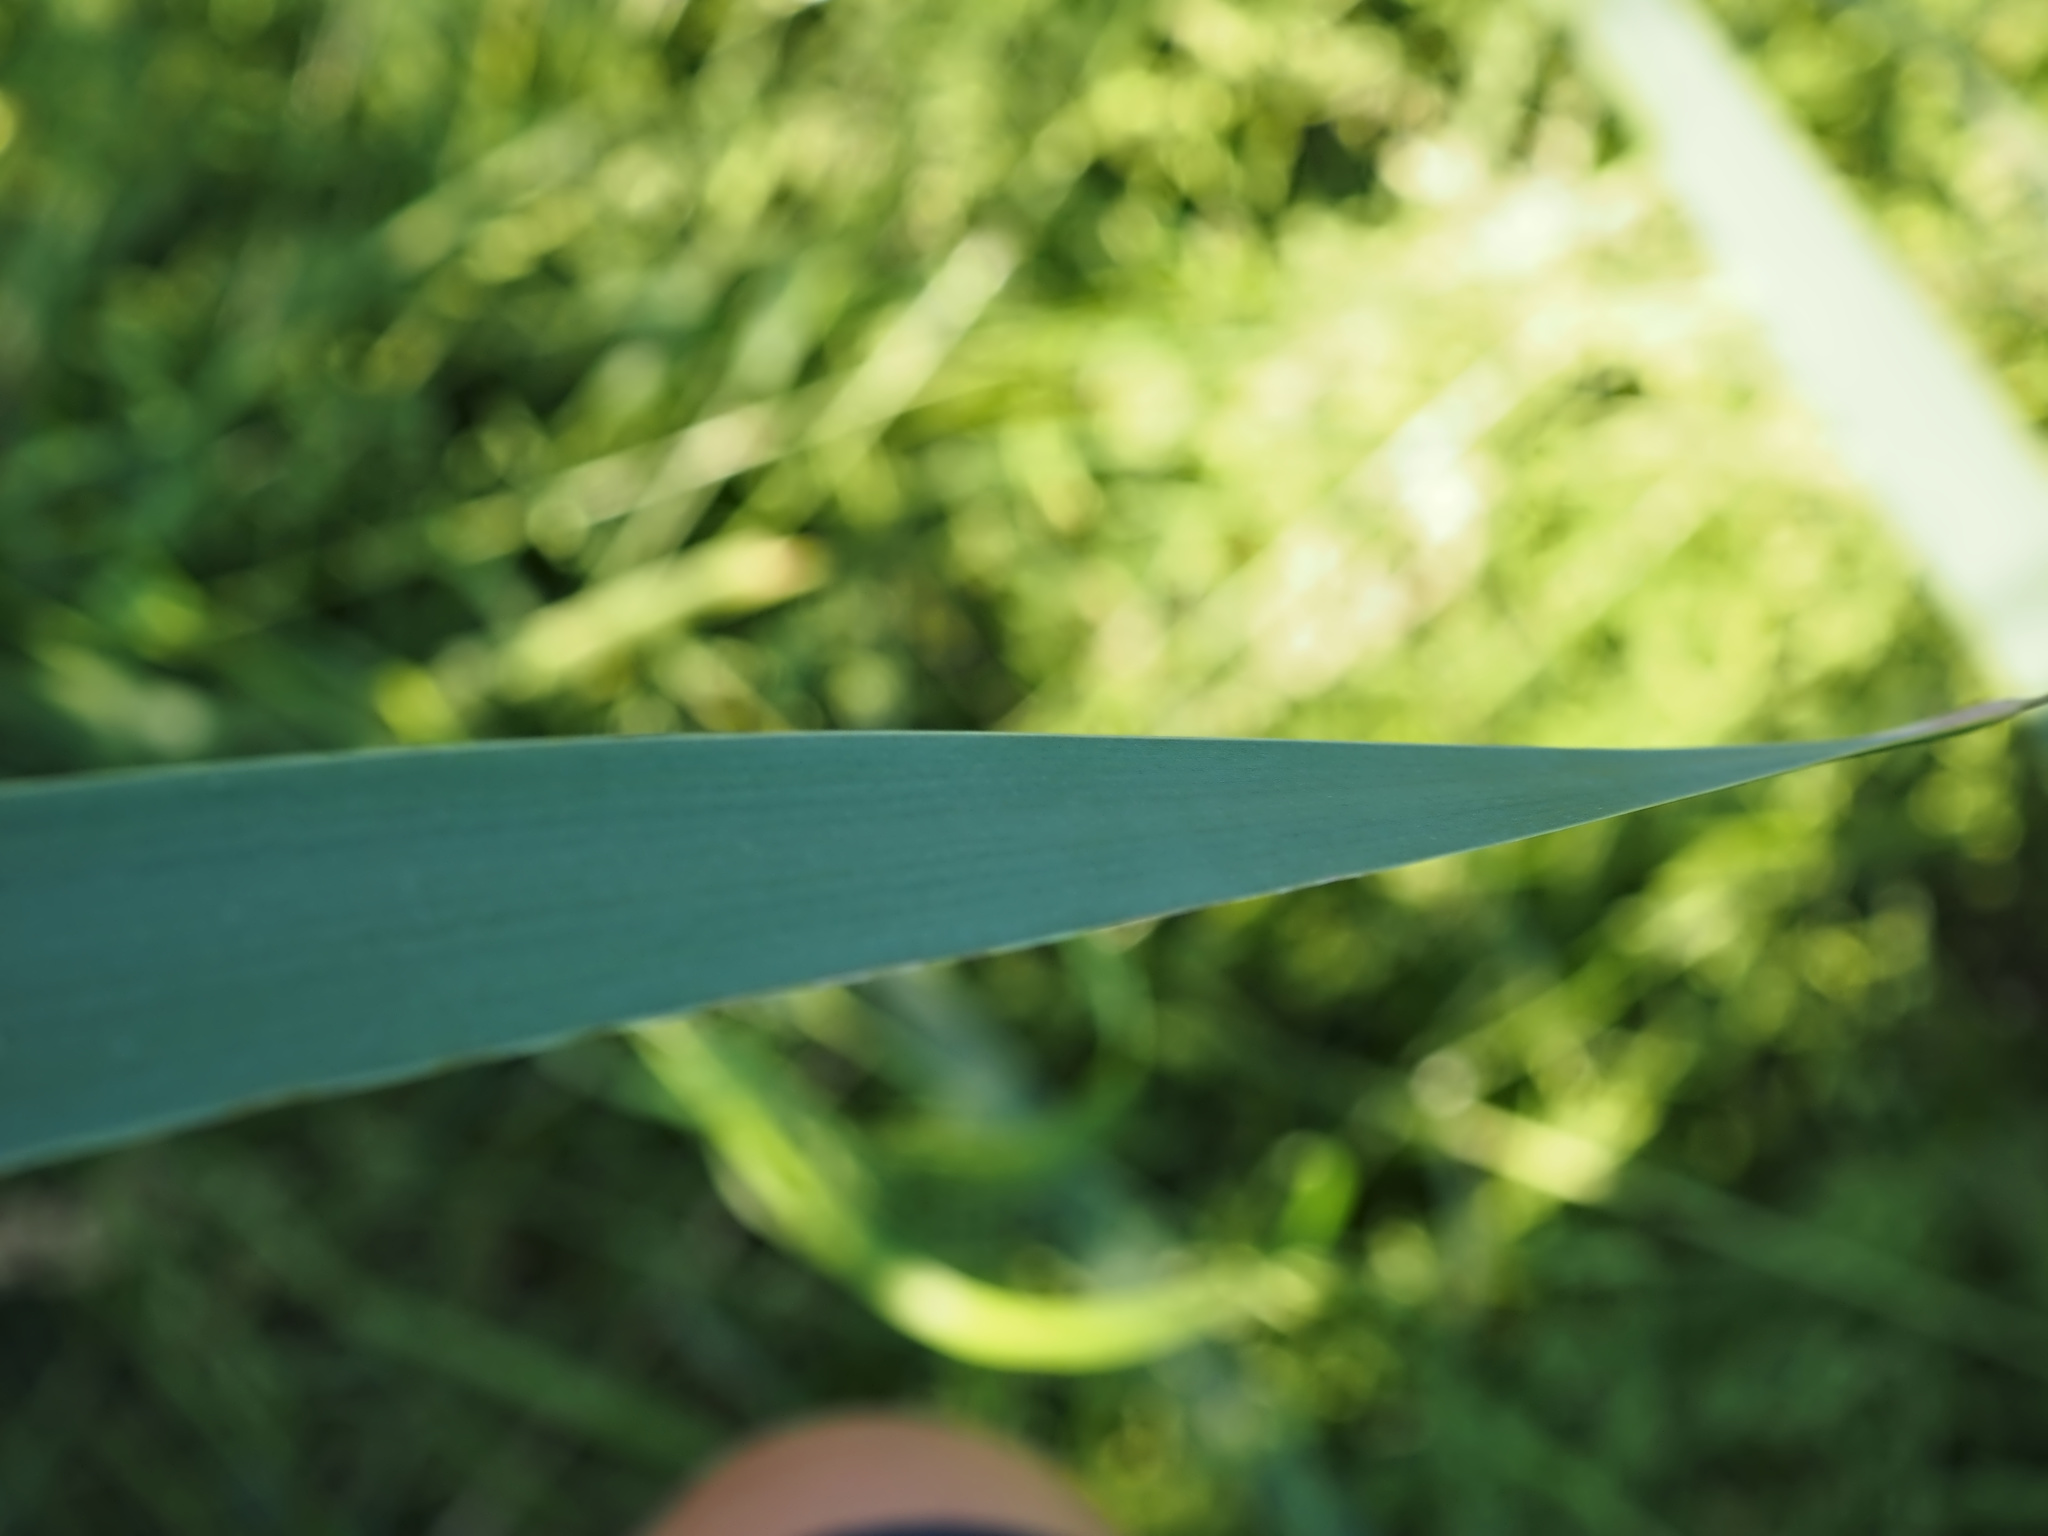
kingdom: Plantae
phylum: Tracheophyta
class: Liliopsida
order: Poales
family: Typhaceae
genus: Typha
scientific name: Typha latifolia
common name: Broadleaf cattail
